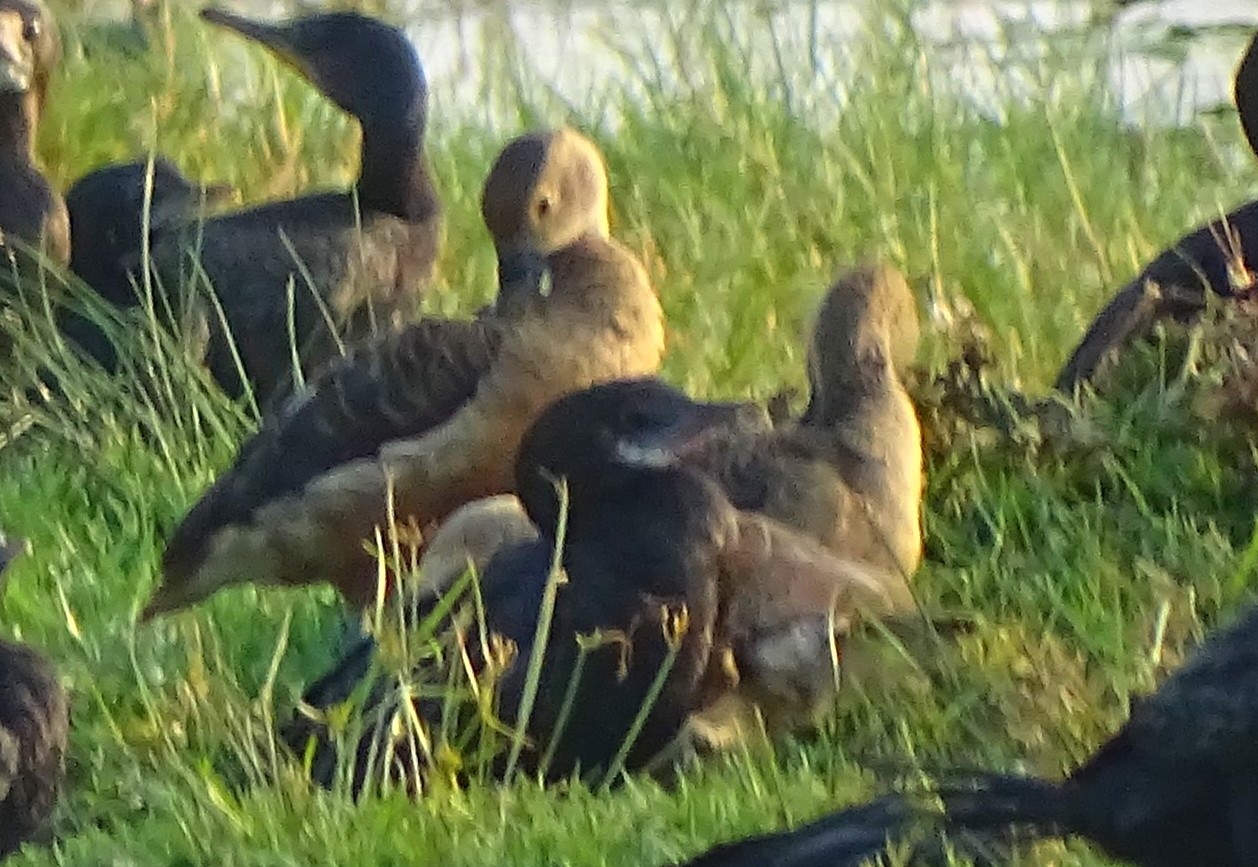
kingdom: Animalia
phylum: Chordata
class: Aves
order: Anseriformes
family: Anatidae
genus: Dendrocygna
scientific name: Dendrocygna javanica
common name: Lesser whistling-duck
